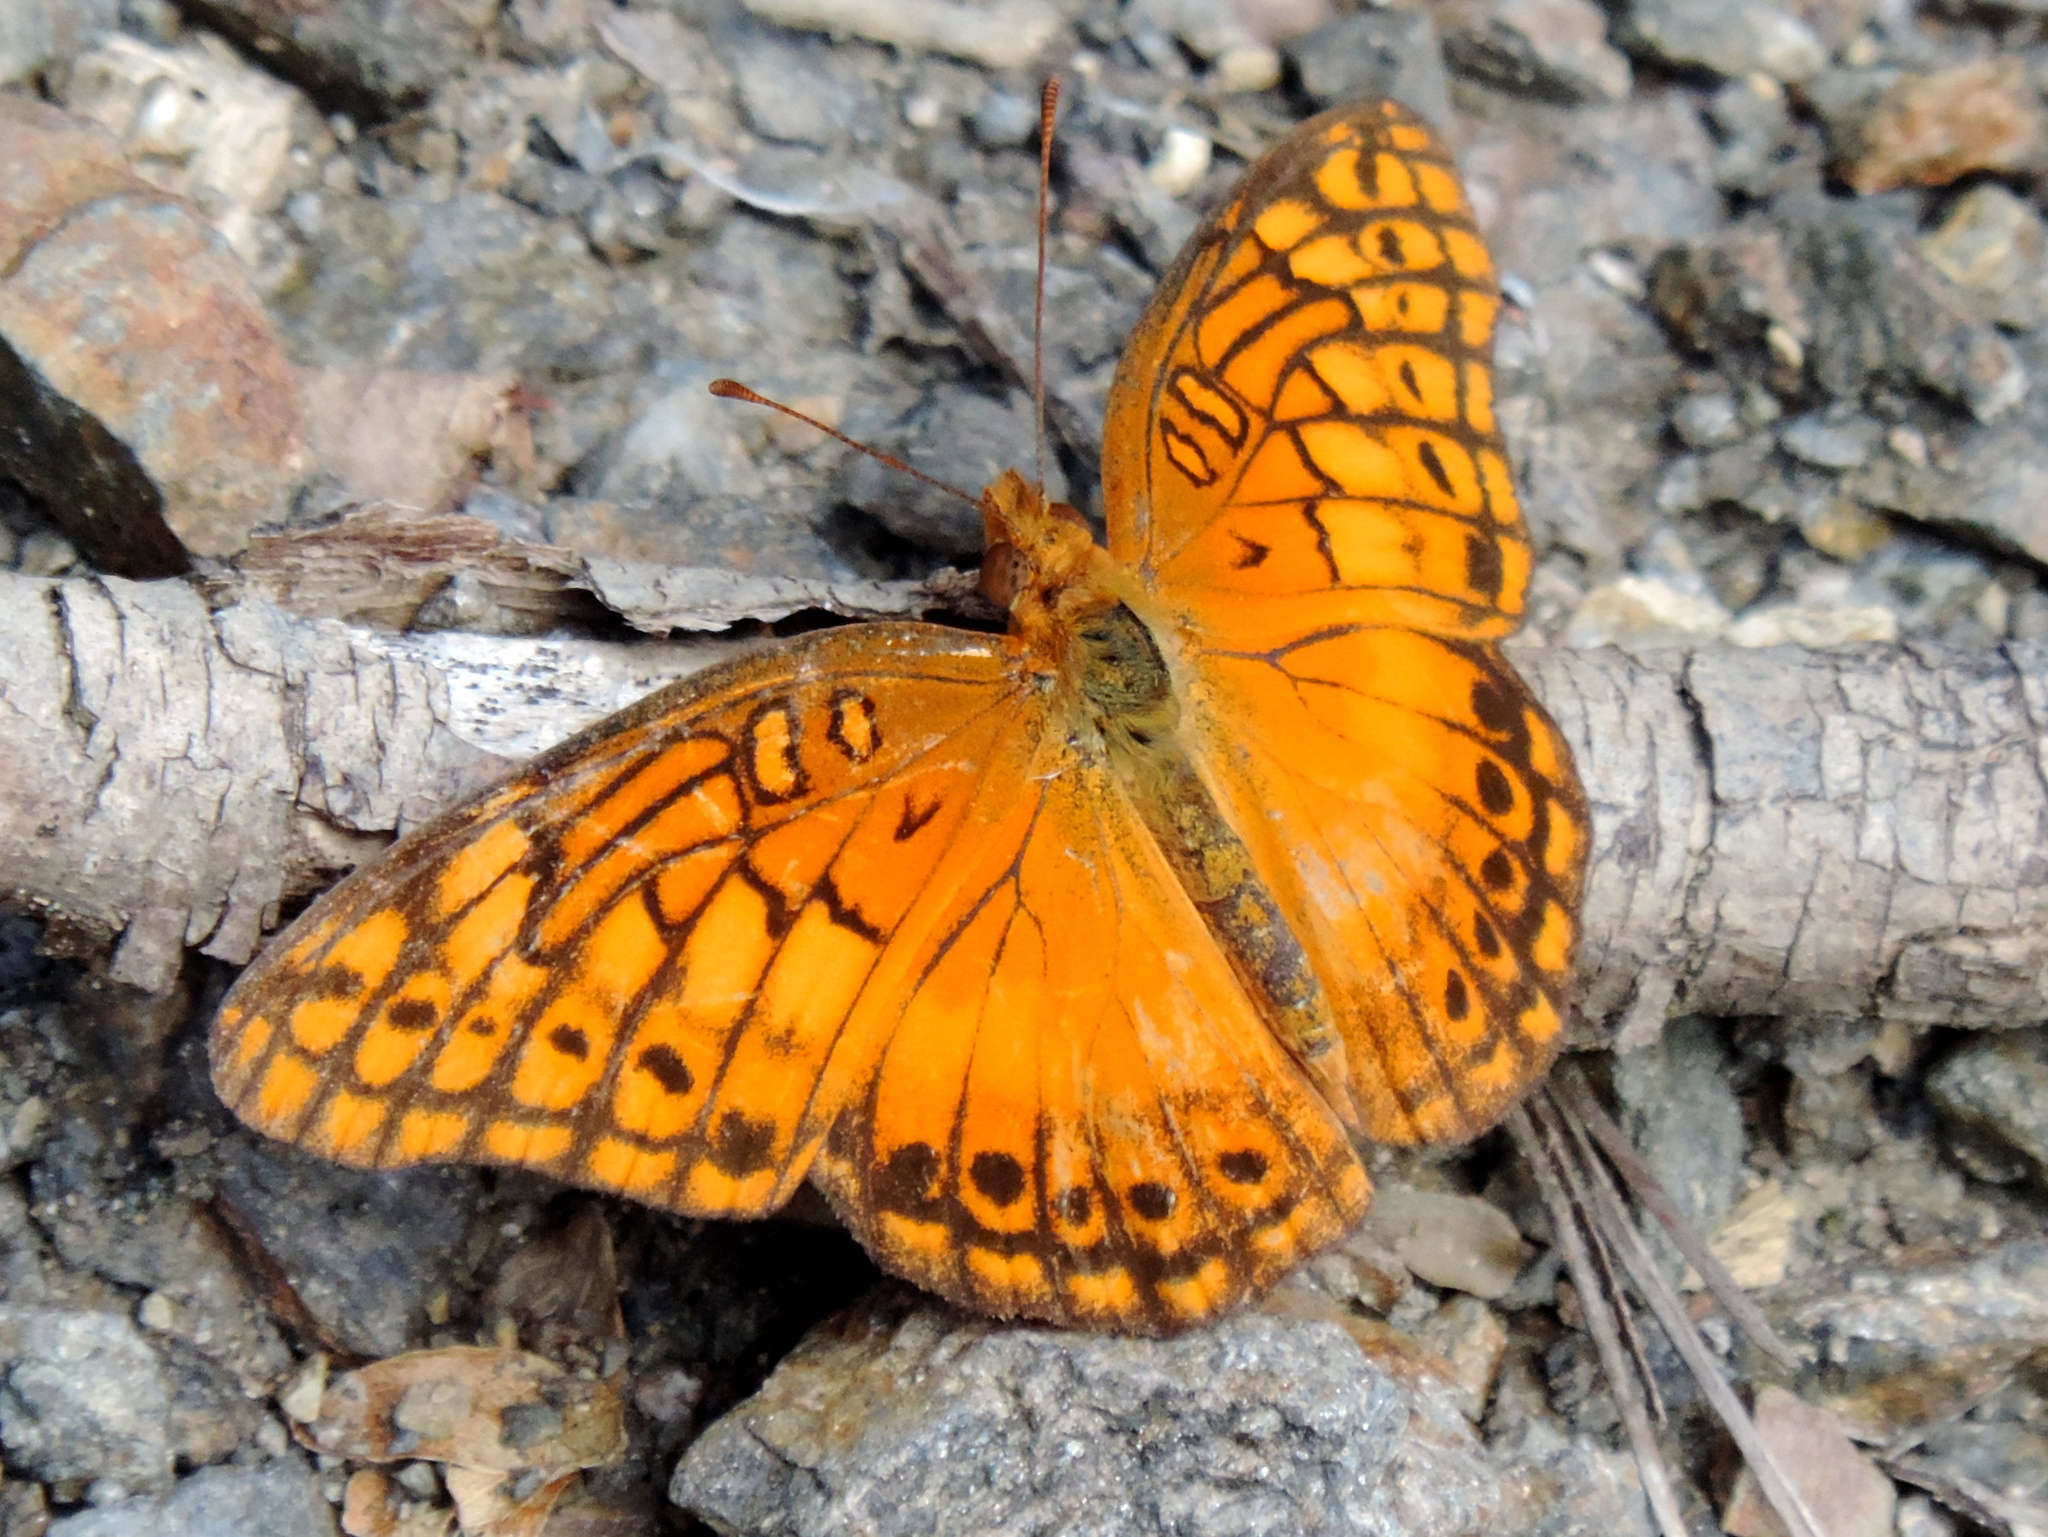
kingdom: Animalia
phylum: Arthropoda
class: Insecta
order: Lepidoptera
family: Nymphalidae
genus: Euptoieta
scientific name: Euptoieta hegesia
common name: Mexican fritillary
